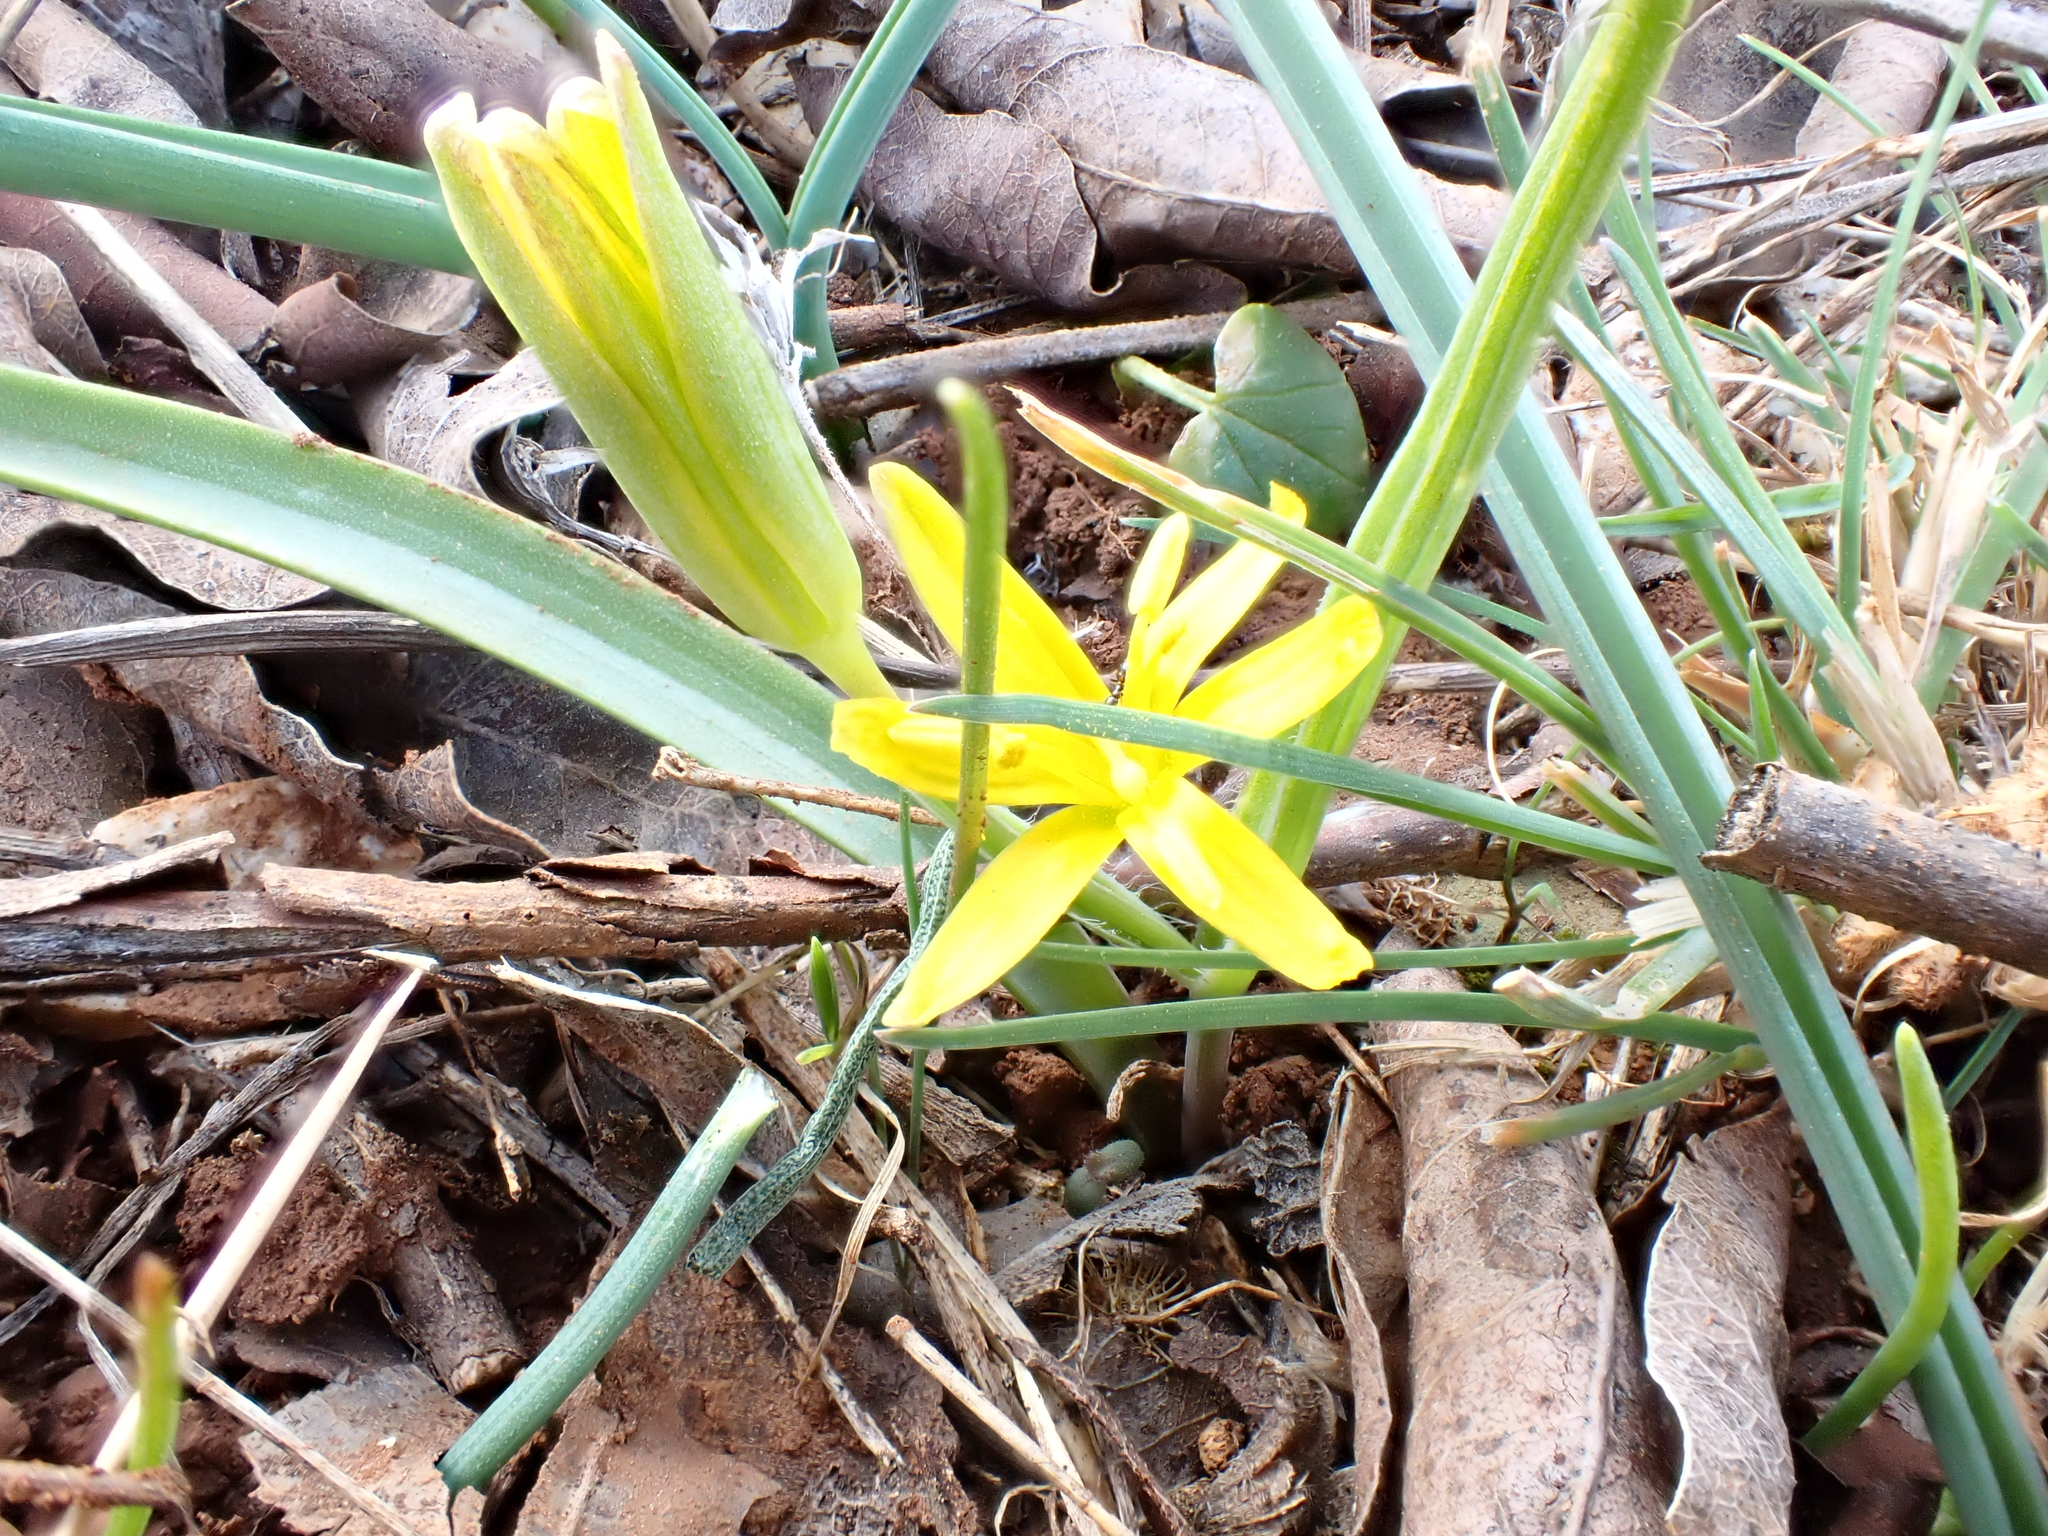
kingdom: Plantae
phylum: Tracheophyta
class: Liliopsida
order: Liliales
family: Liliaceae
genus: Gagea
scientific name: Gagea pratensis
